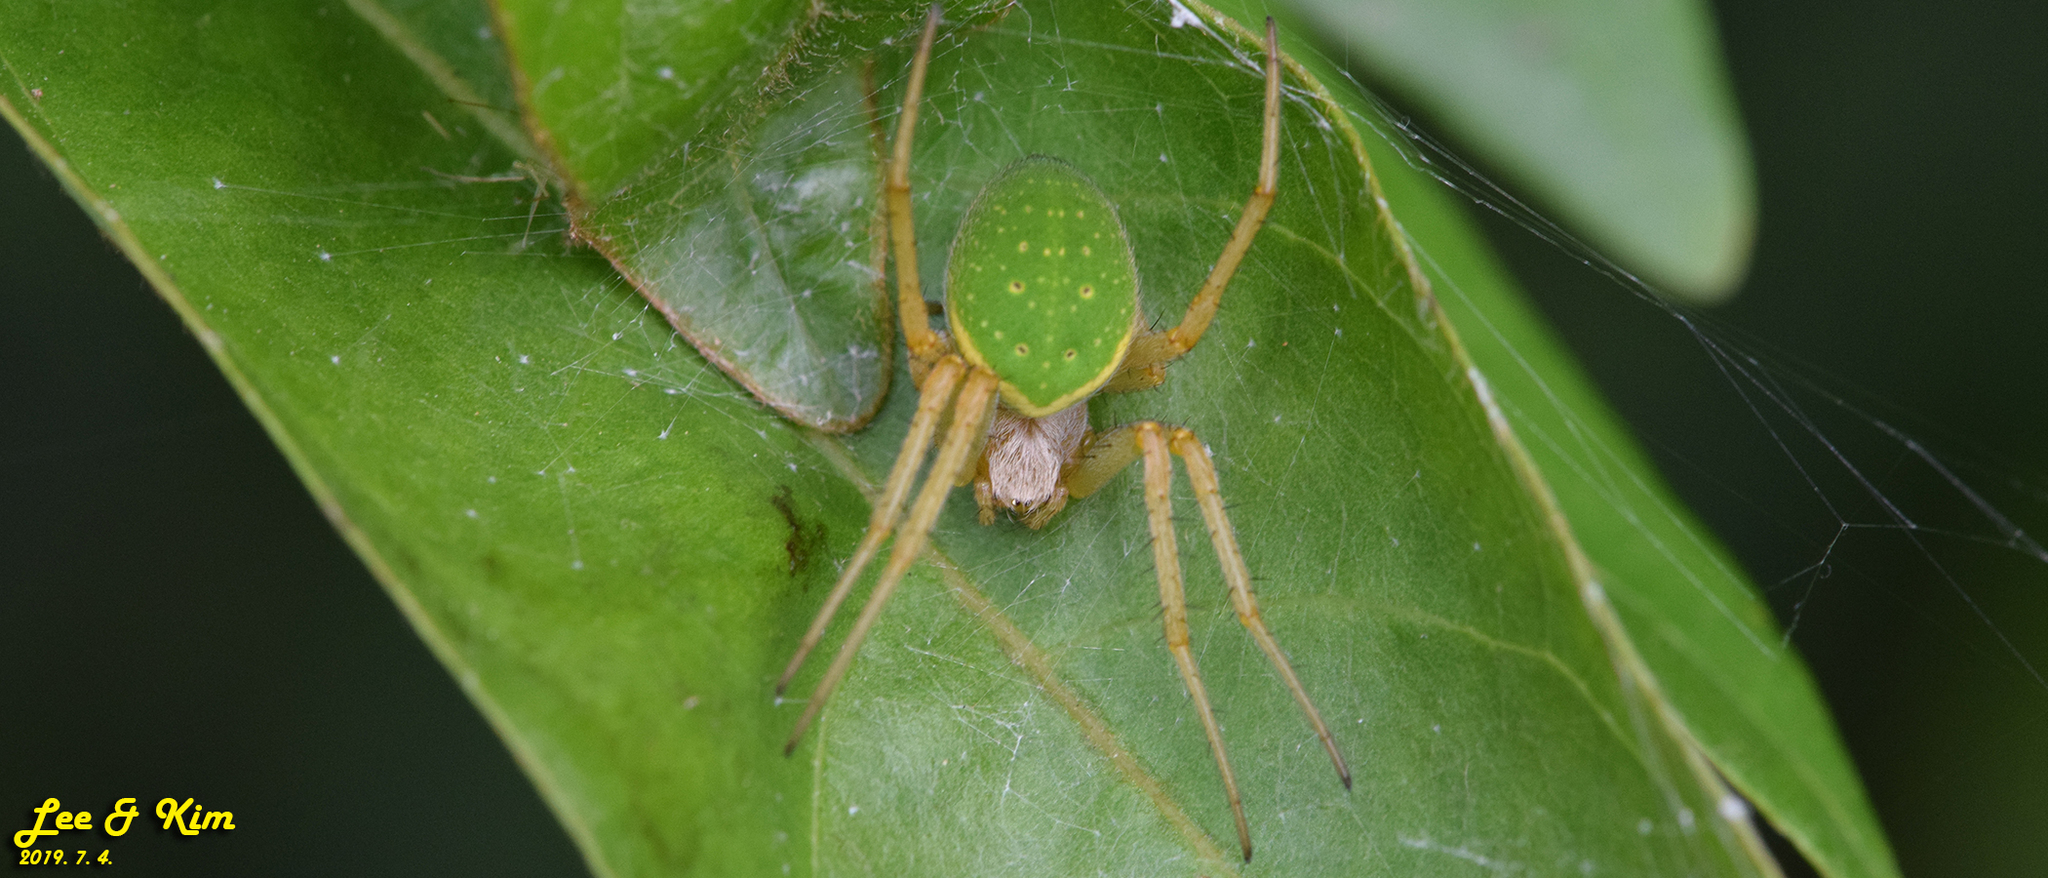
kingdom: Animalia
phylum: Arthropoda
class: Arachnida
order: Araneae
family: Araneidae
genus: Neoscona
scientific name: Neoscona scylloides
